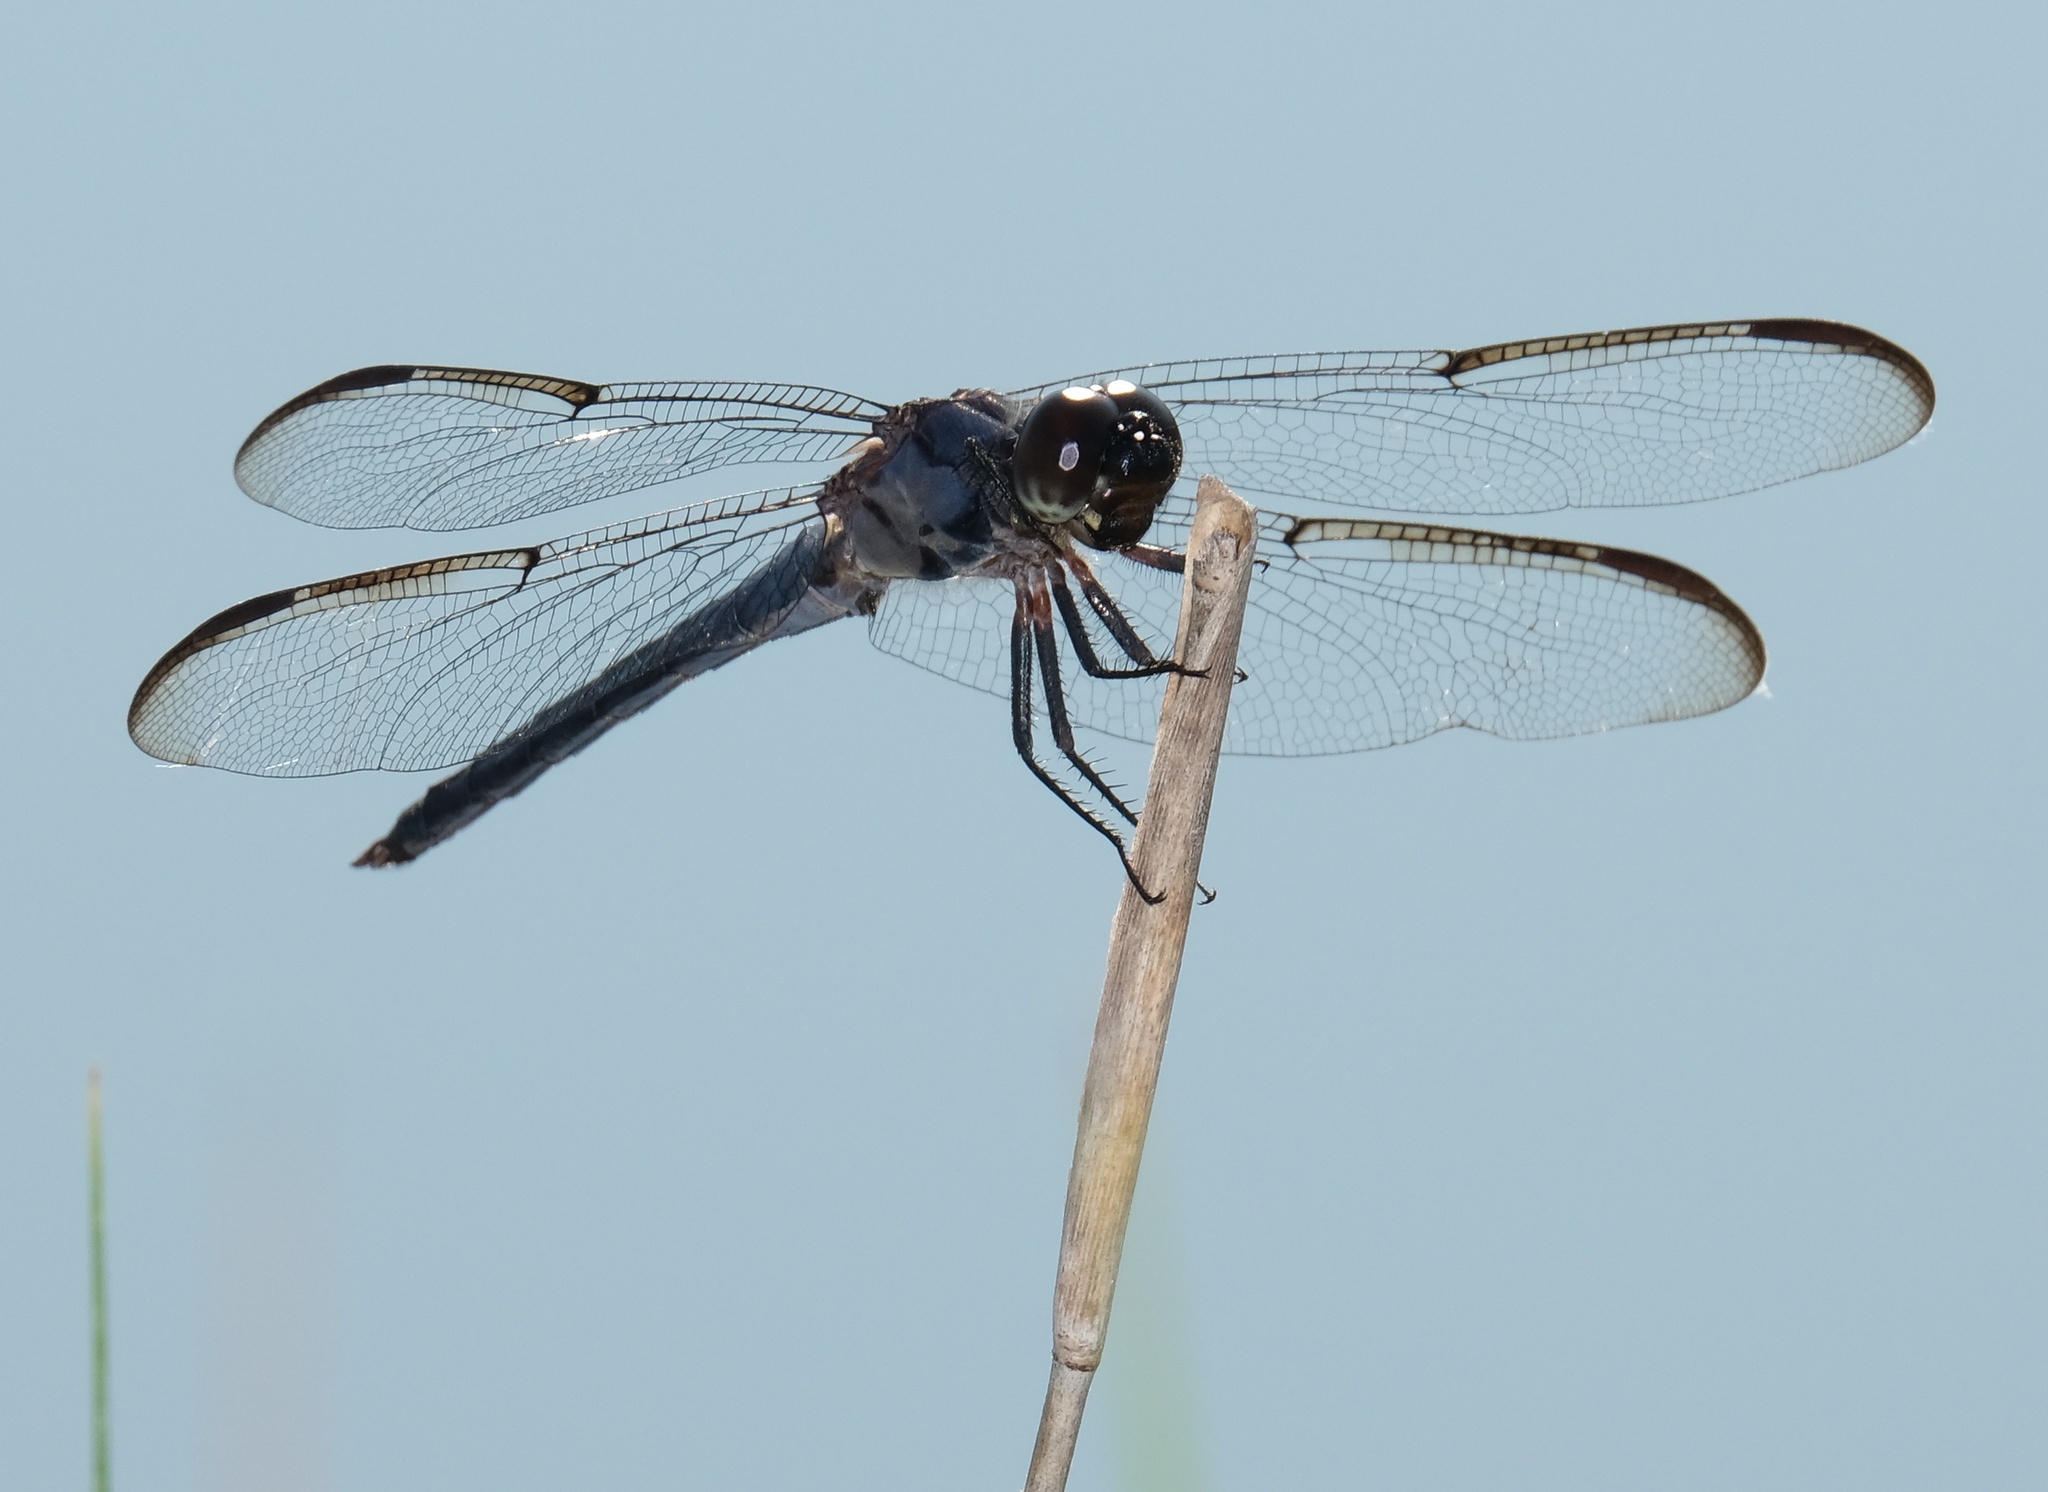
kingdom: Animalia
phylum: Arthropoda
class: Insecta
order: Odonata
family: Libellulidae
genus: Libellula
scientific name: Libellula incesta
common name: Slaty skimmer
